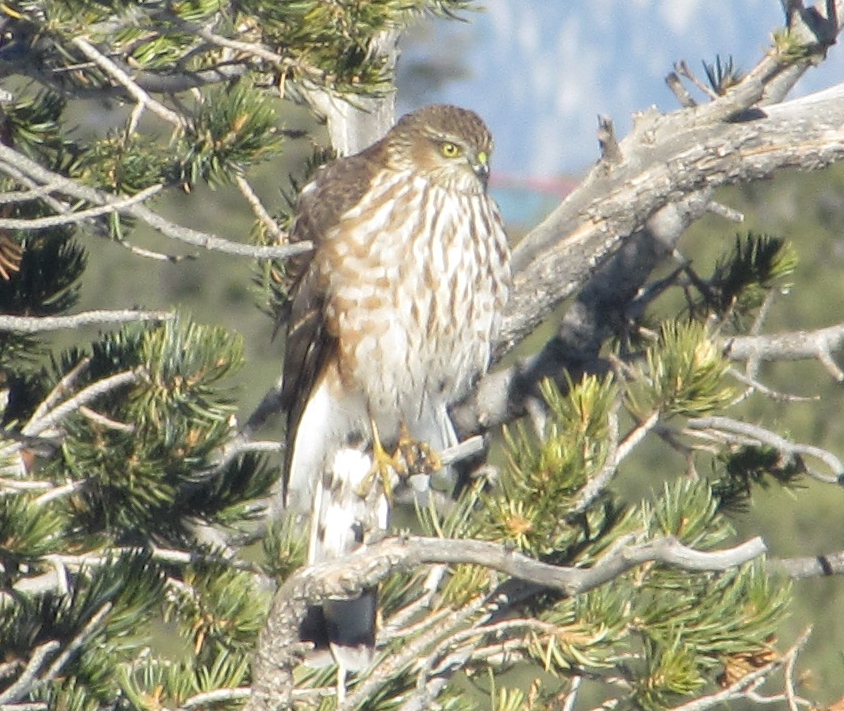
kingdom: Animalia
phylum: Chordata
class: Aves
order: Accipitriformes
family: Accipitridae
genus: Accipiter
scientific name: Accipiter striatus
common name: Sharp-shinned hawk
